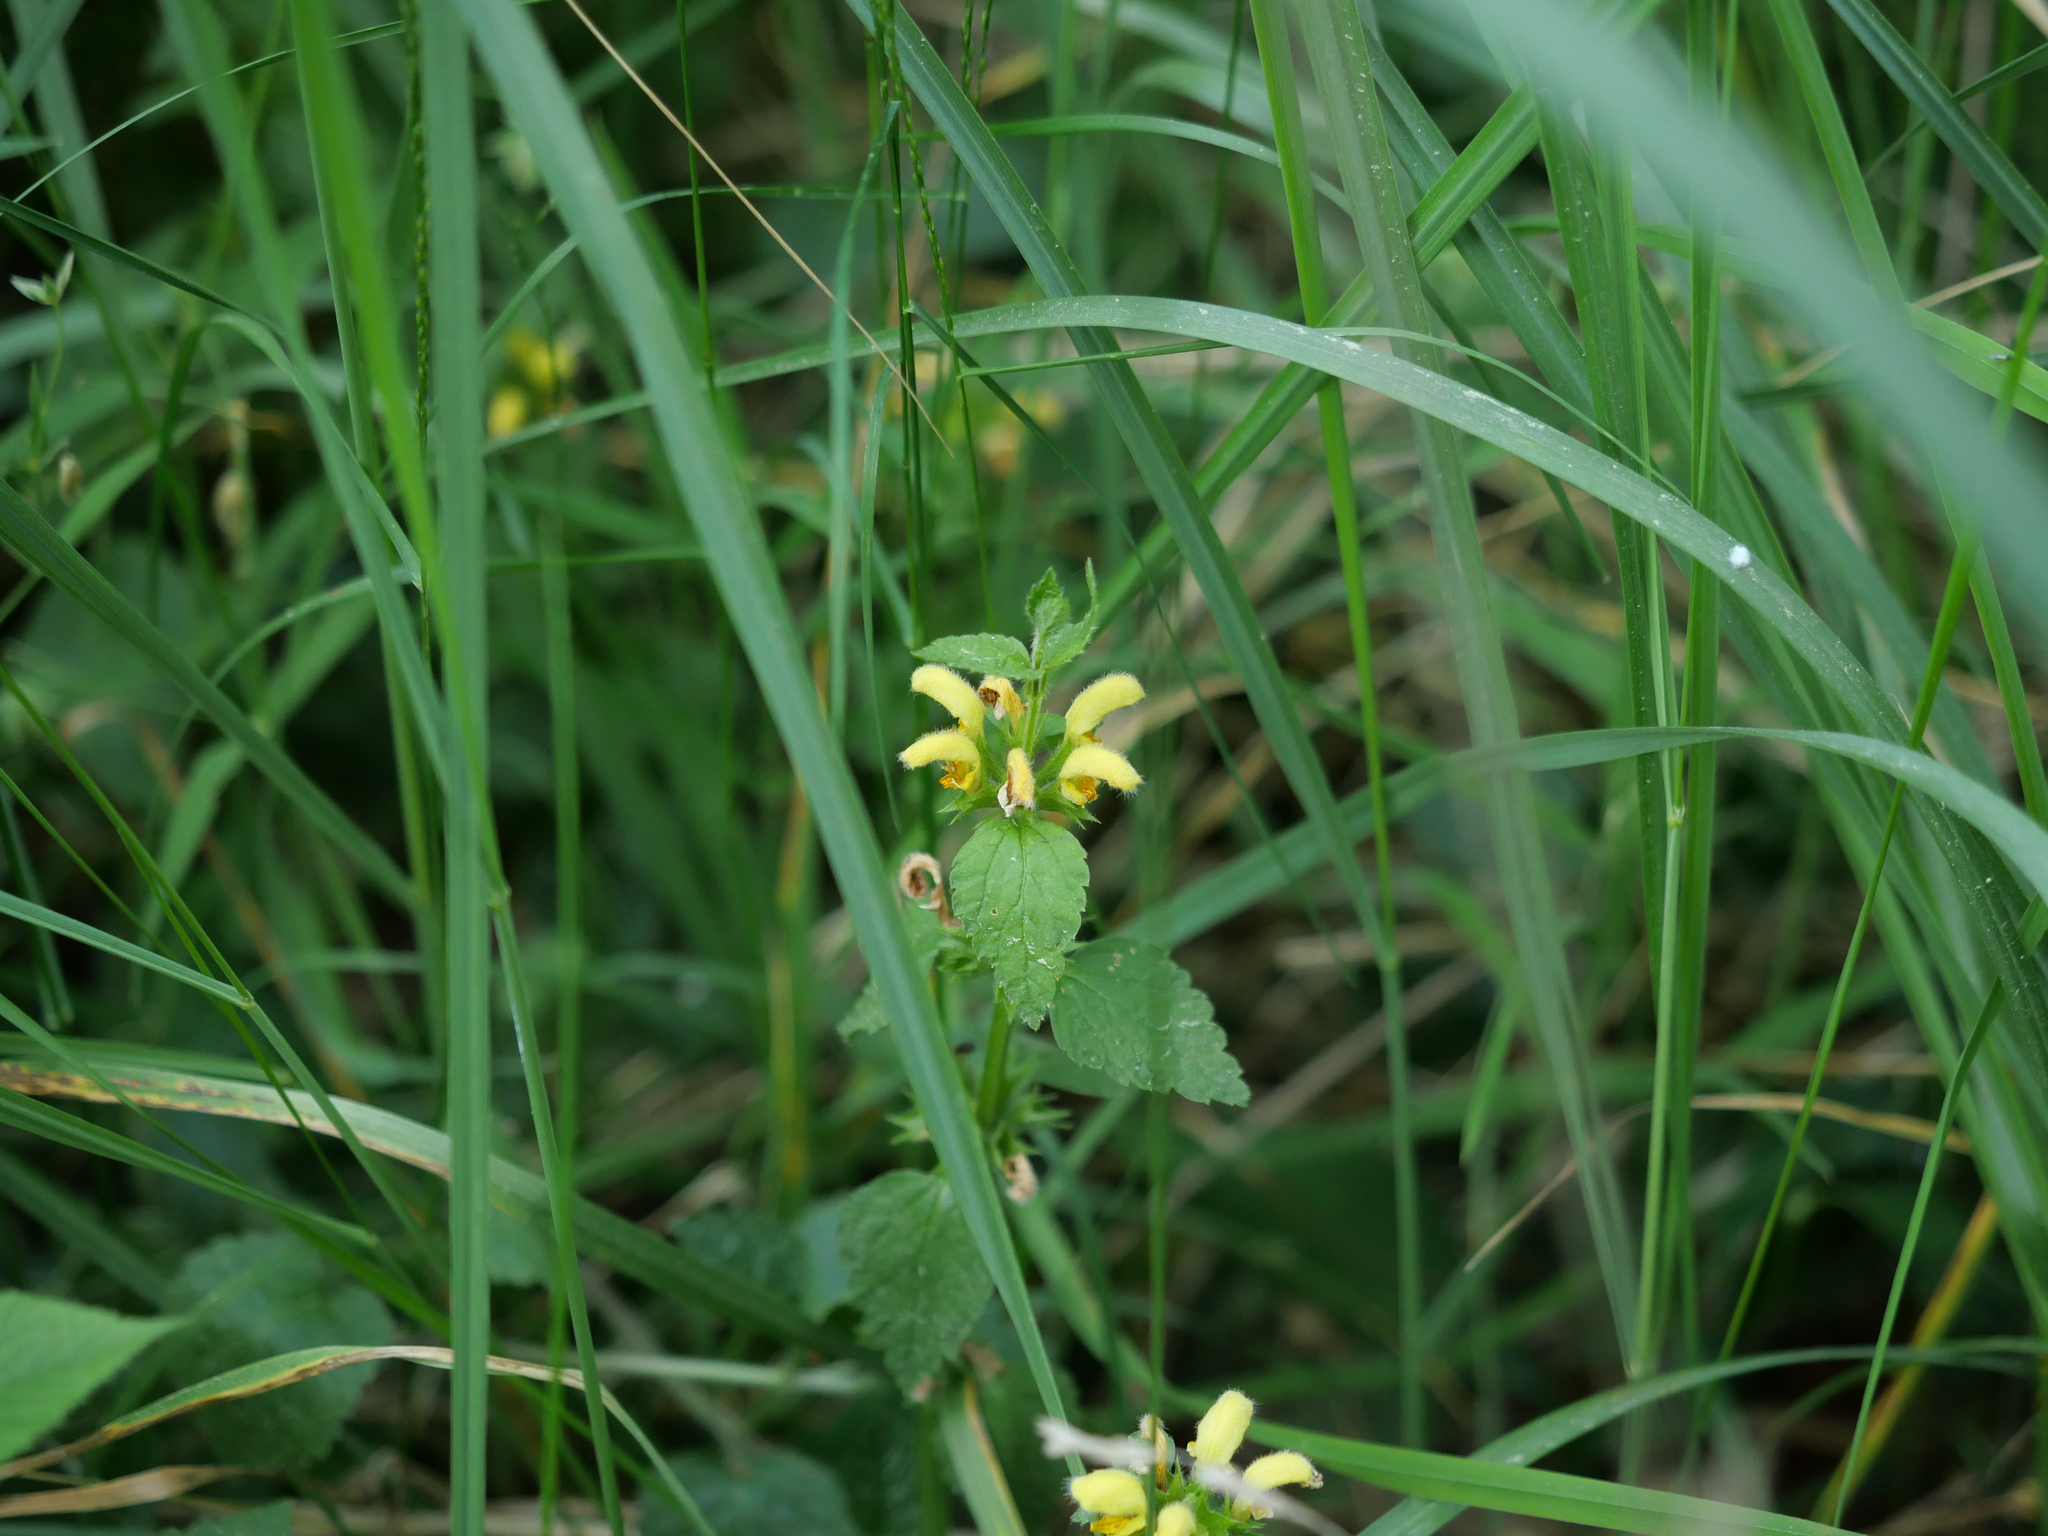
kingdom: Plantae
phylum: Tracheophyta
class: Magnoliopsida
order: Lamiales
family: Lamiaceae
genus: Lamium
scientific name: Lamium galeobdolon
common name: Yellow archangel
